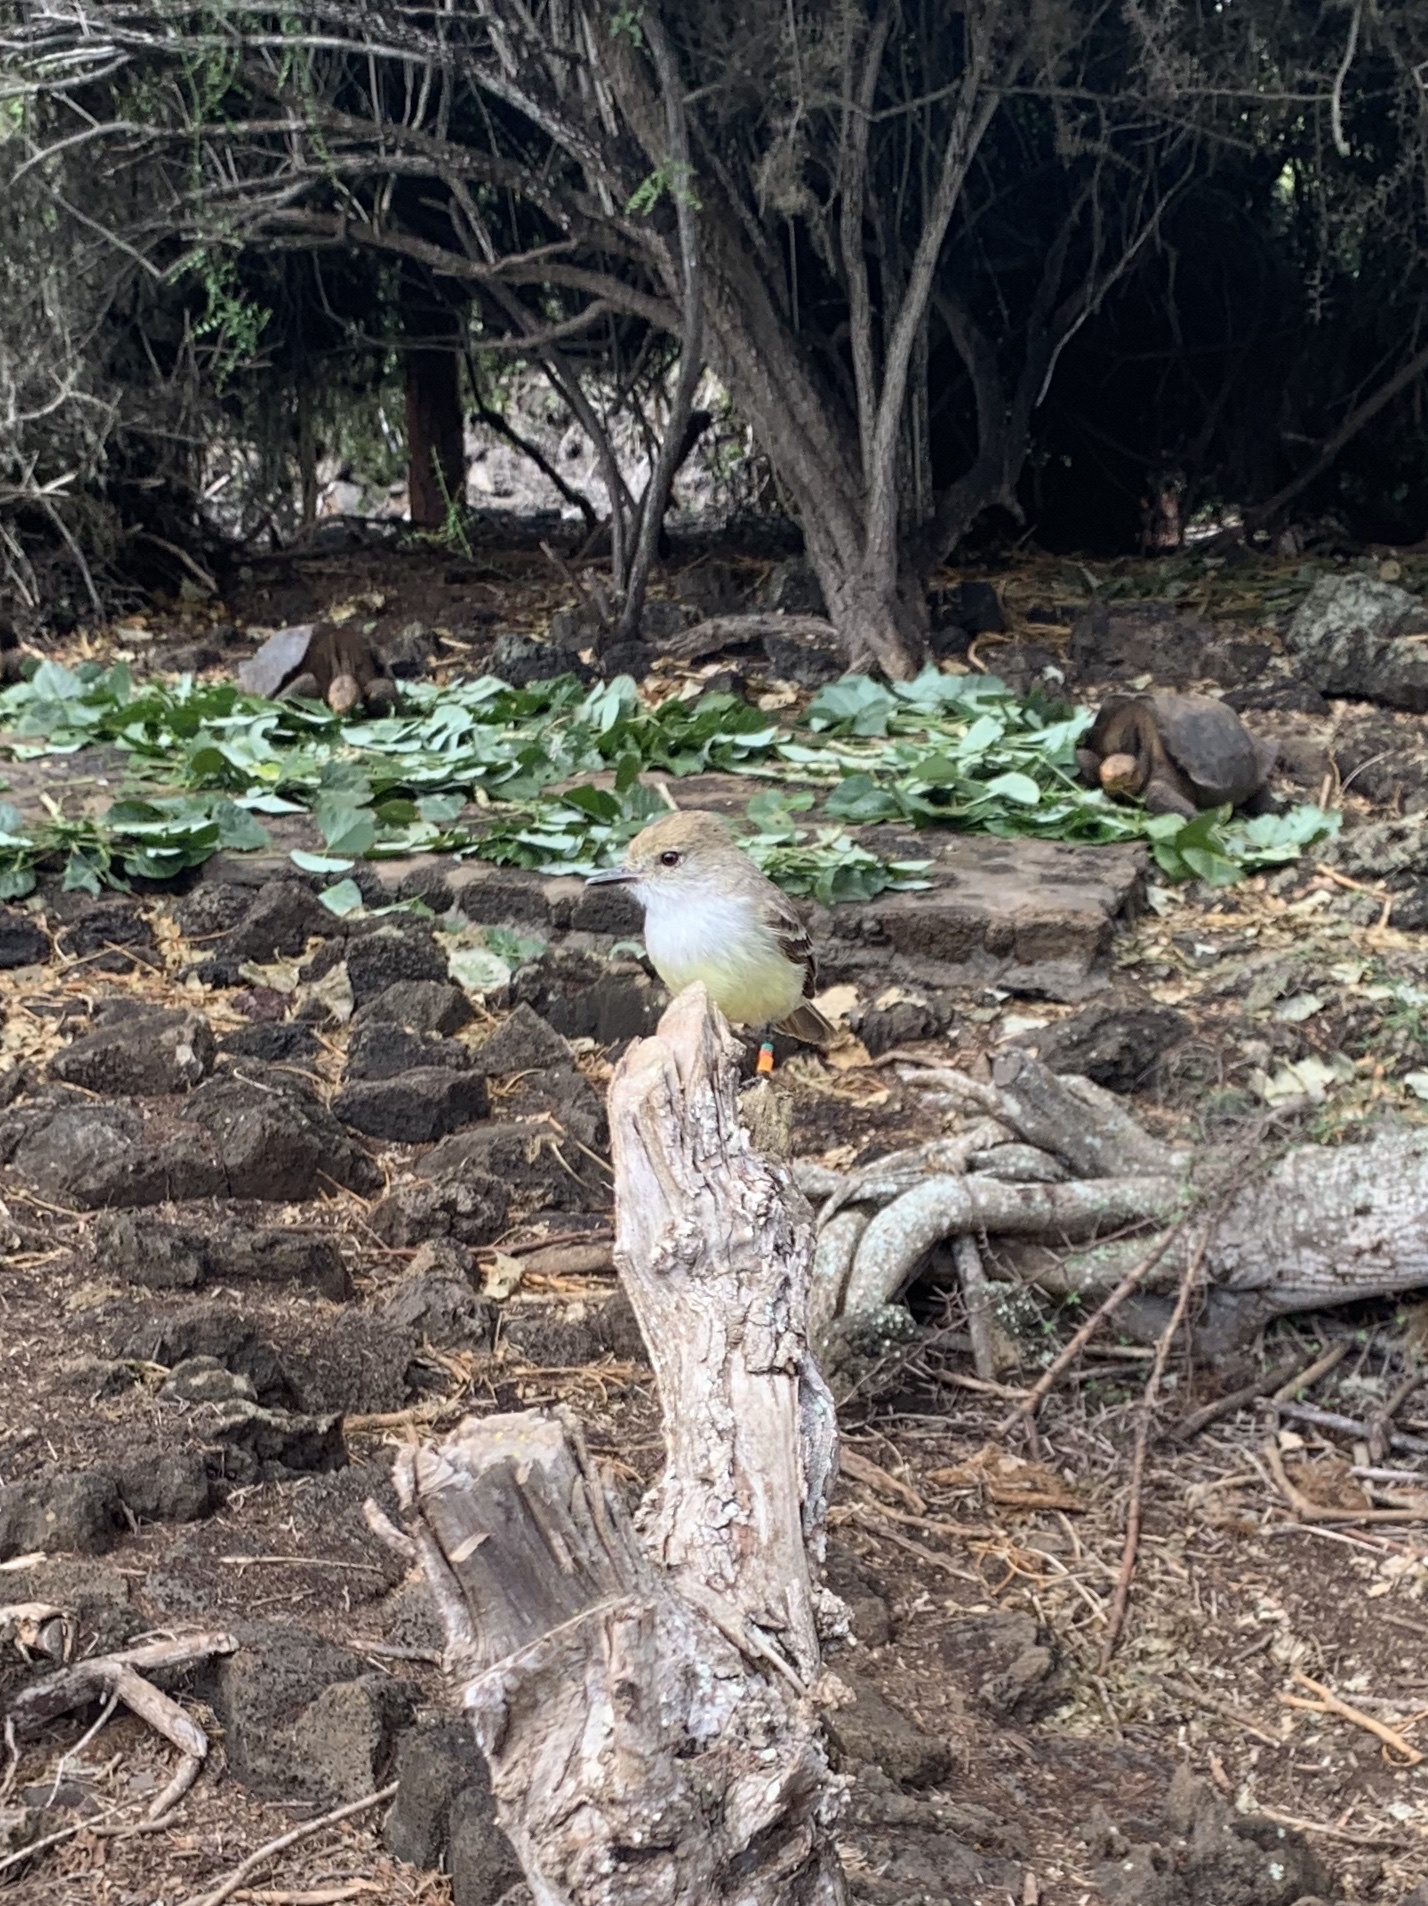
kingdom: Animalia
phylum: Chordata
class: Aves
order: Passeriformes
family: Tyrannidae
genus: Myiarchus
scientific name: Myiarchus magnirostris
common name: Galapagos flycatcher
